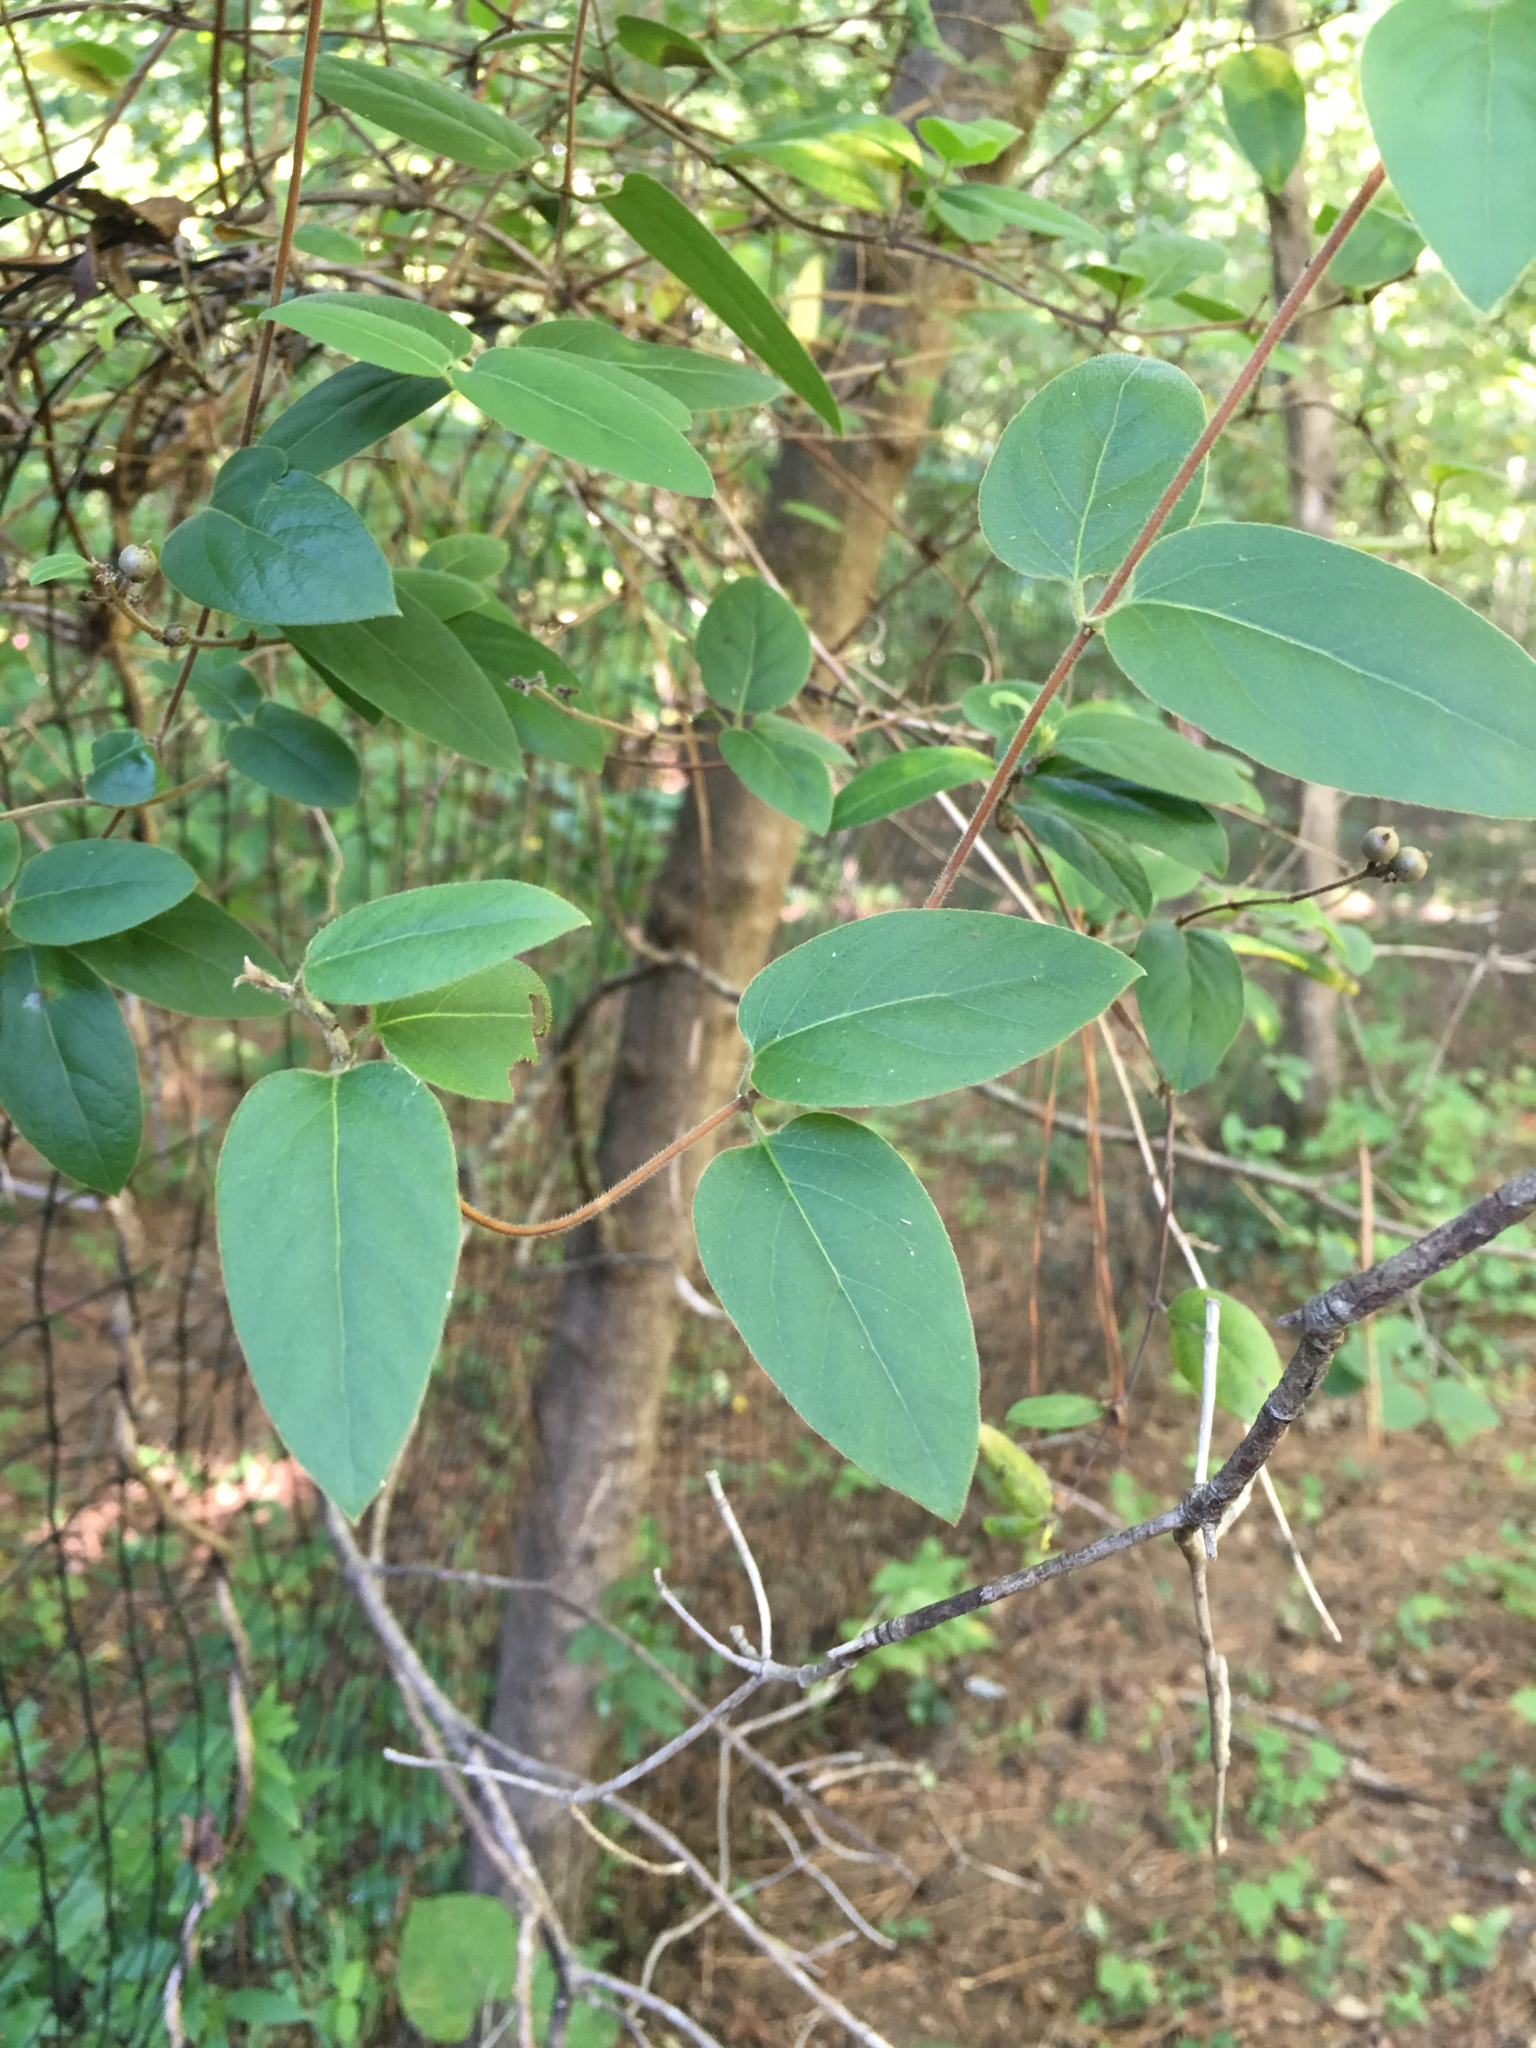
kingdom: Plantae
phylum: Tracheophyta
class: Magnoliopsida
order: Dipsacales
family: Caprifoliaceae
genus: Lonicera
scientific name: Lonicera japonica
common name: Japanese honeysuckle
